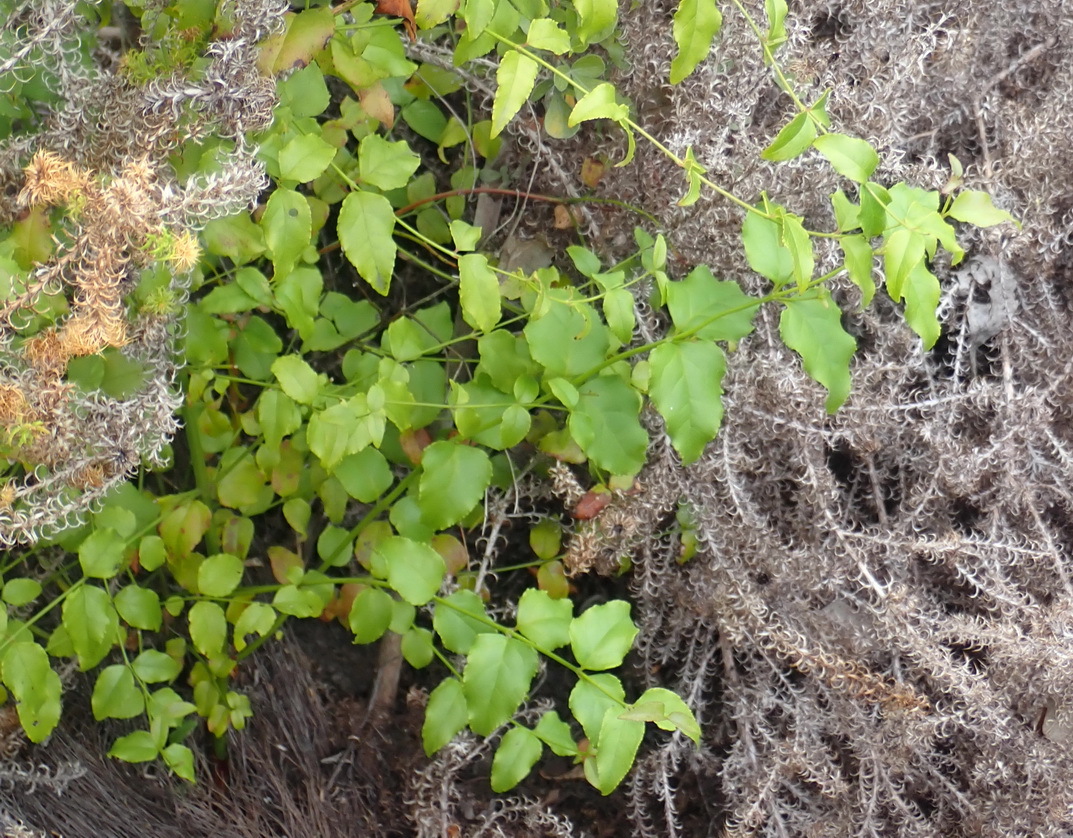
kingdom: Plantae
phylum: Tracheophyta
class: Magnoliopsida
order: Lamiales
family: Stilbaceae
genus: Halleria
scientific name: Halleria lucida
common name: Tree fuschia
